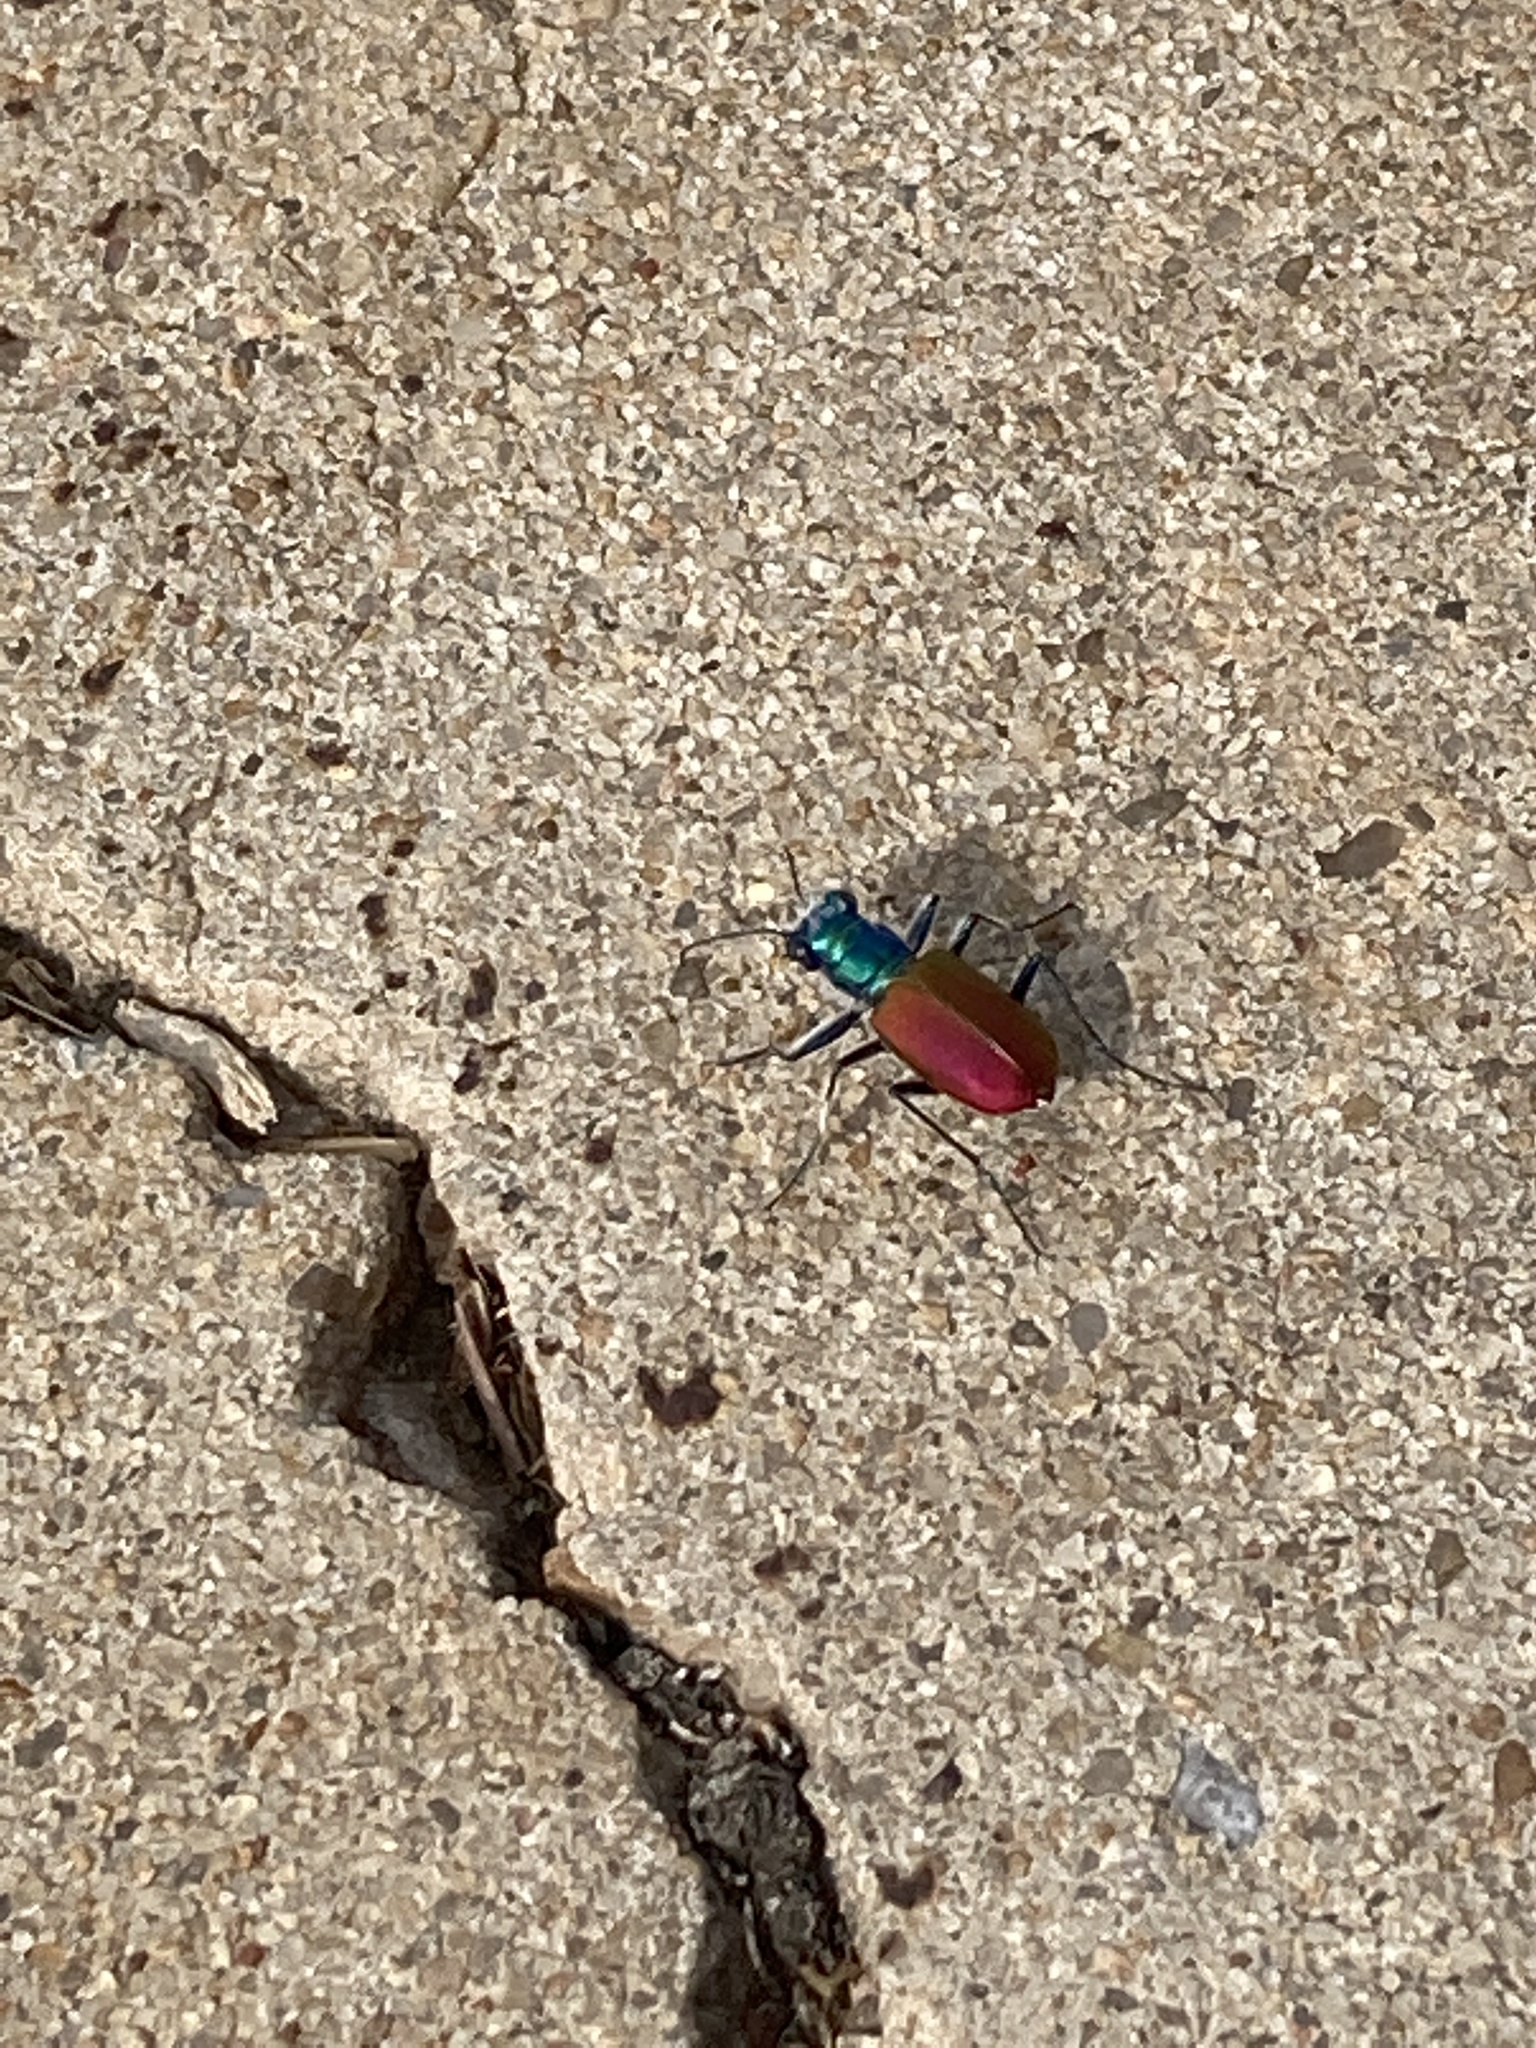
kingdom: Animalia
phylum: Arthropoda
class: Insecta
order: Coleoptera
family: Carabidae
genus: Cicindela
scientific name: Cicindela scutellaris
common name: Festive tiger beetle
